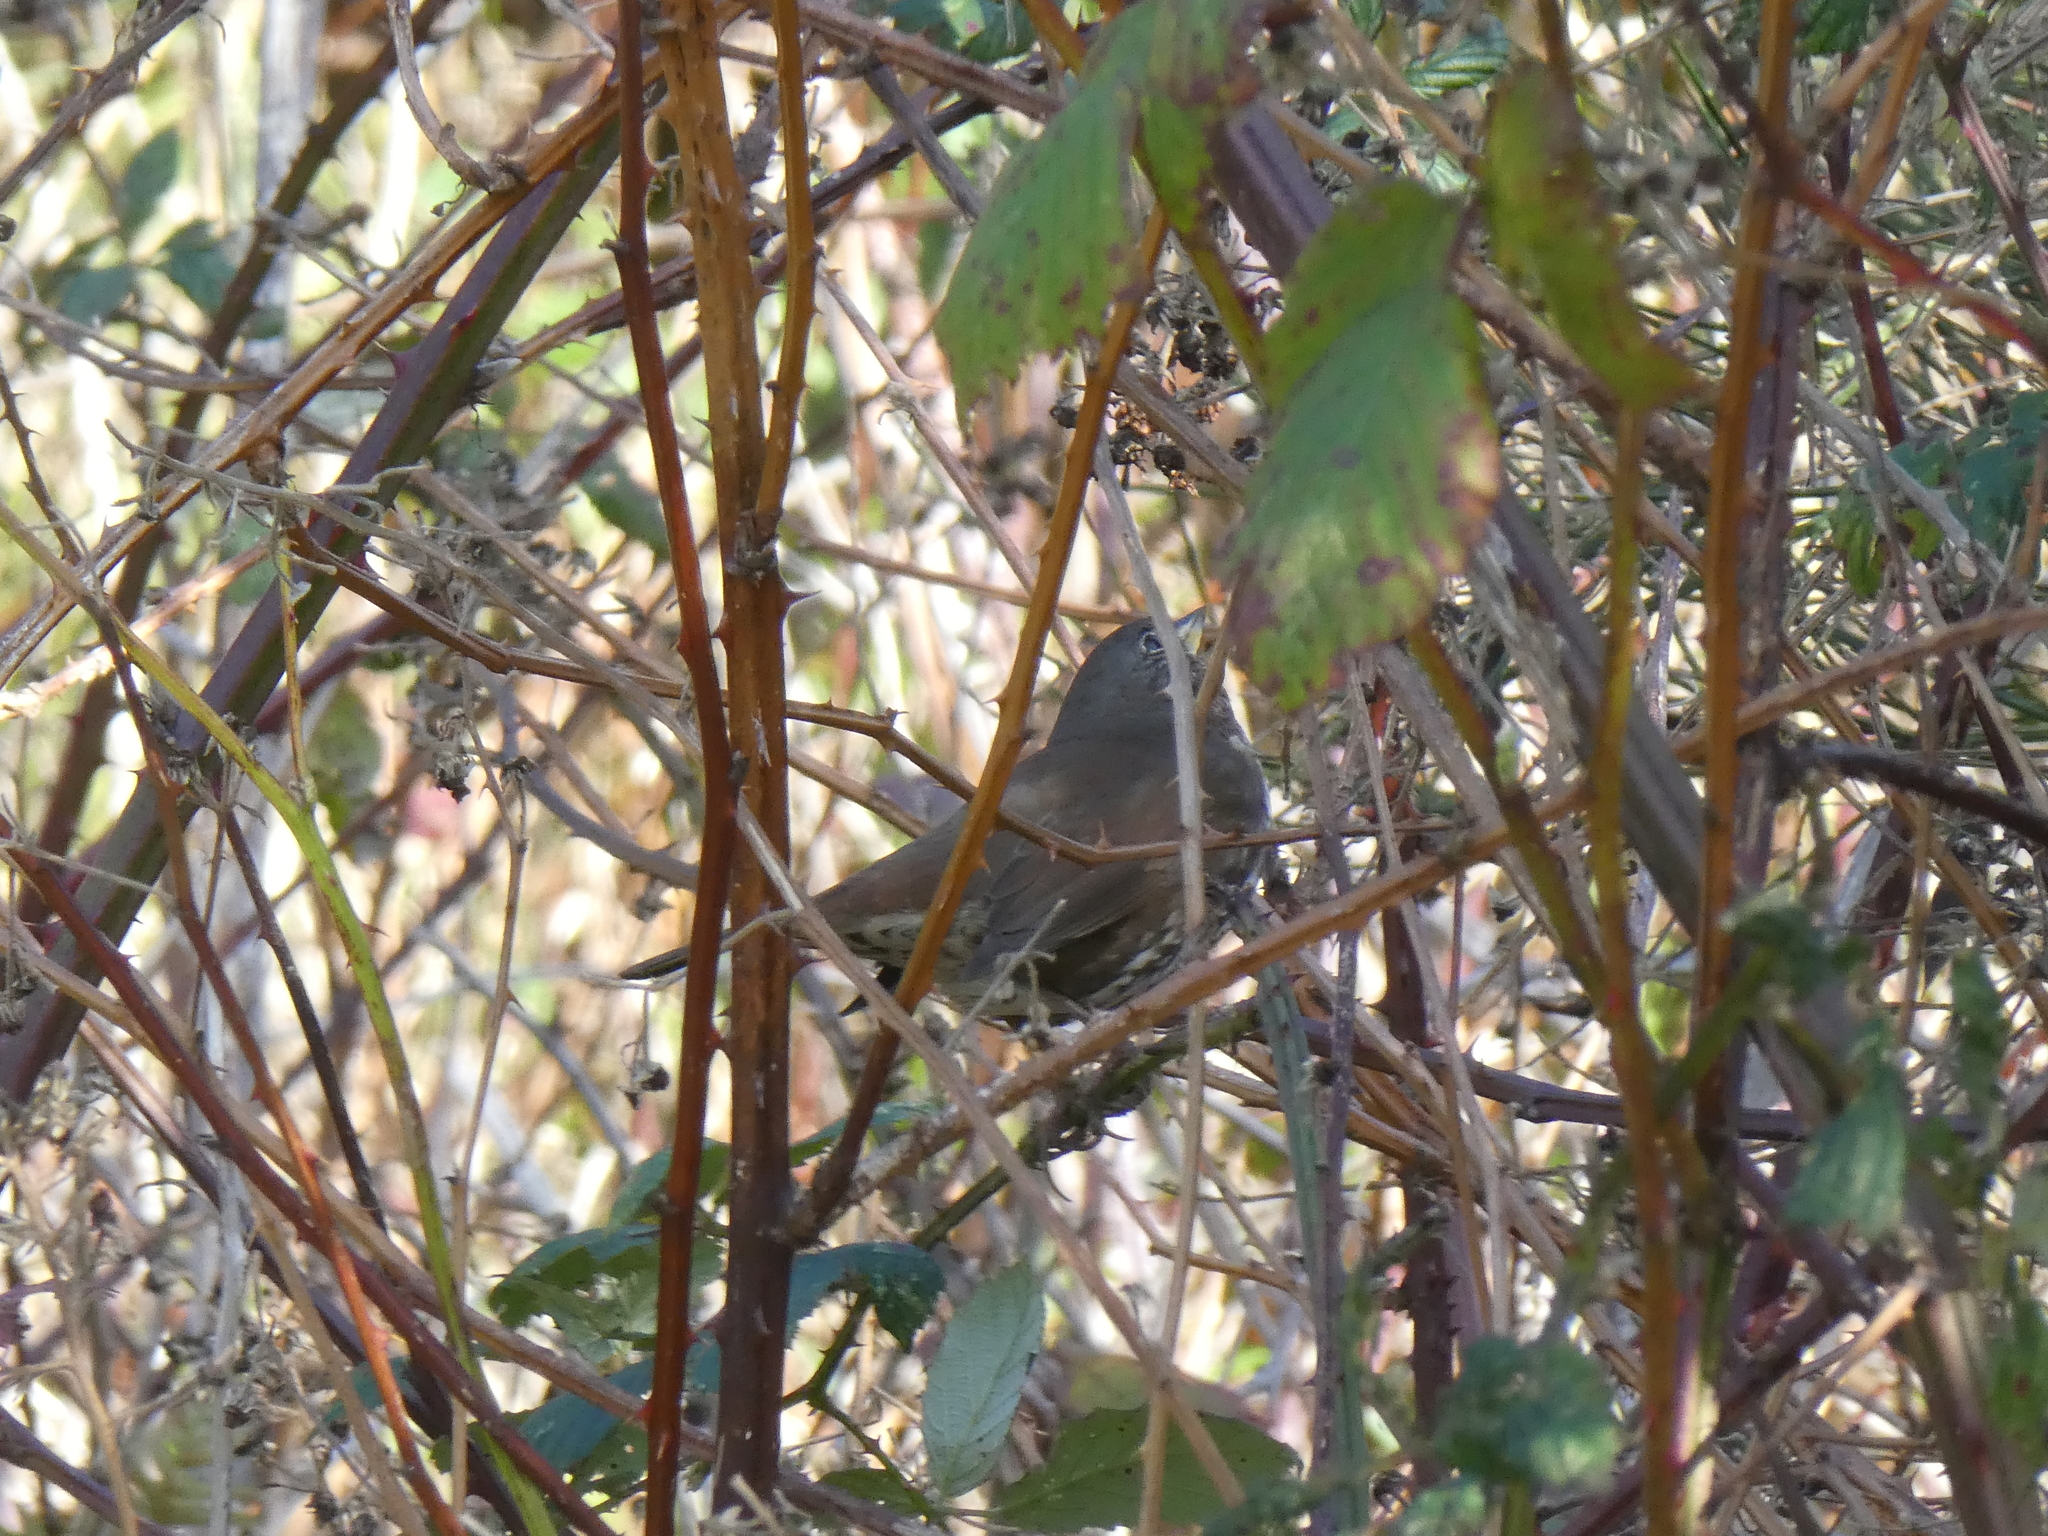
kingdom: Animalia
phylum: Chordata
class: Aves
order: Passeriformes
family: Passerellidae
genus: Passerella
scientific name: Passerella iliaca
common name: Fox sparrow
